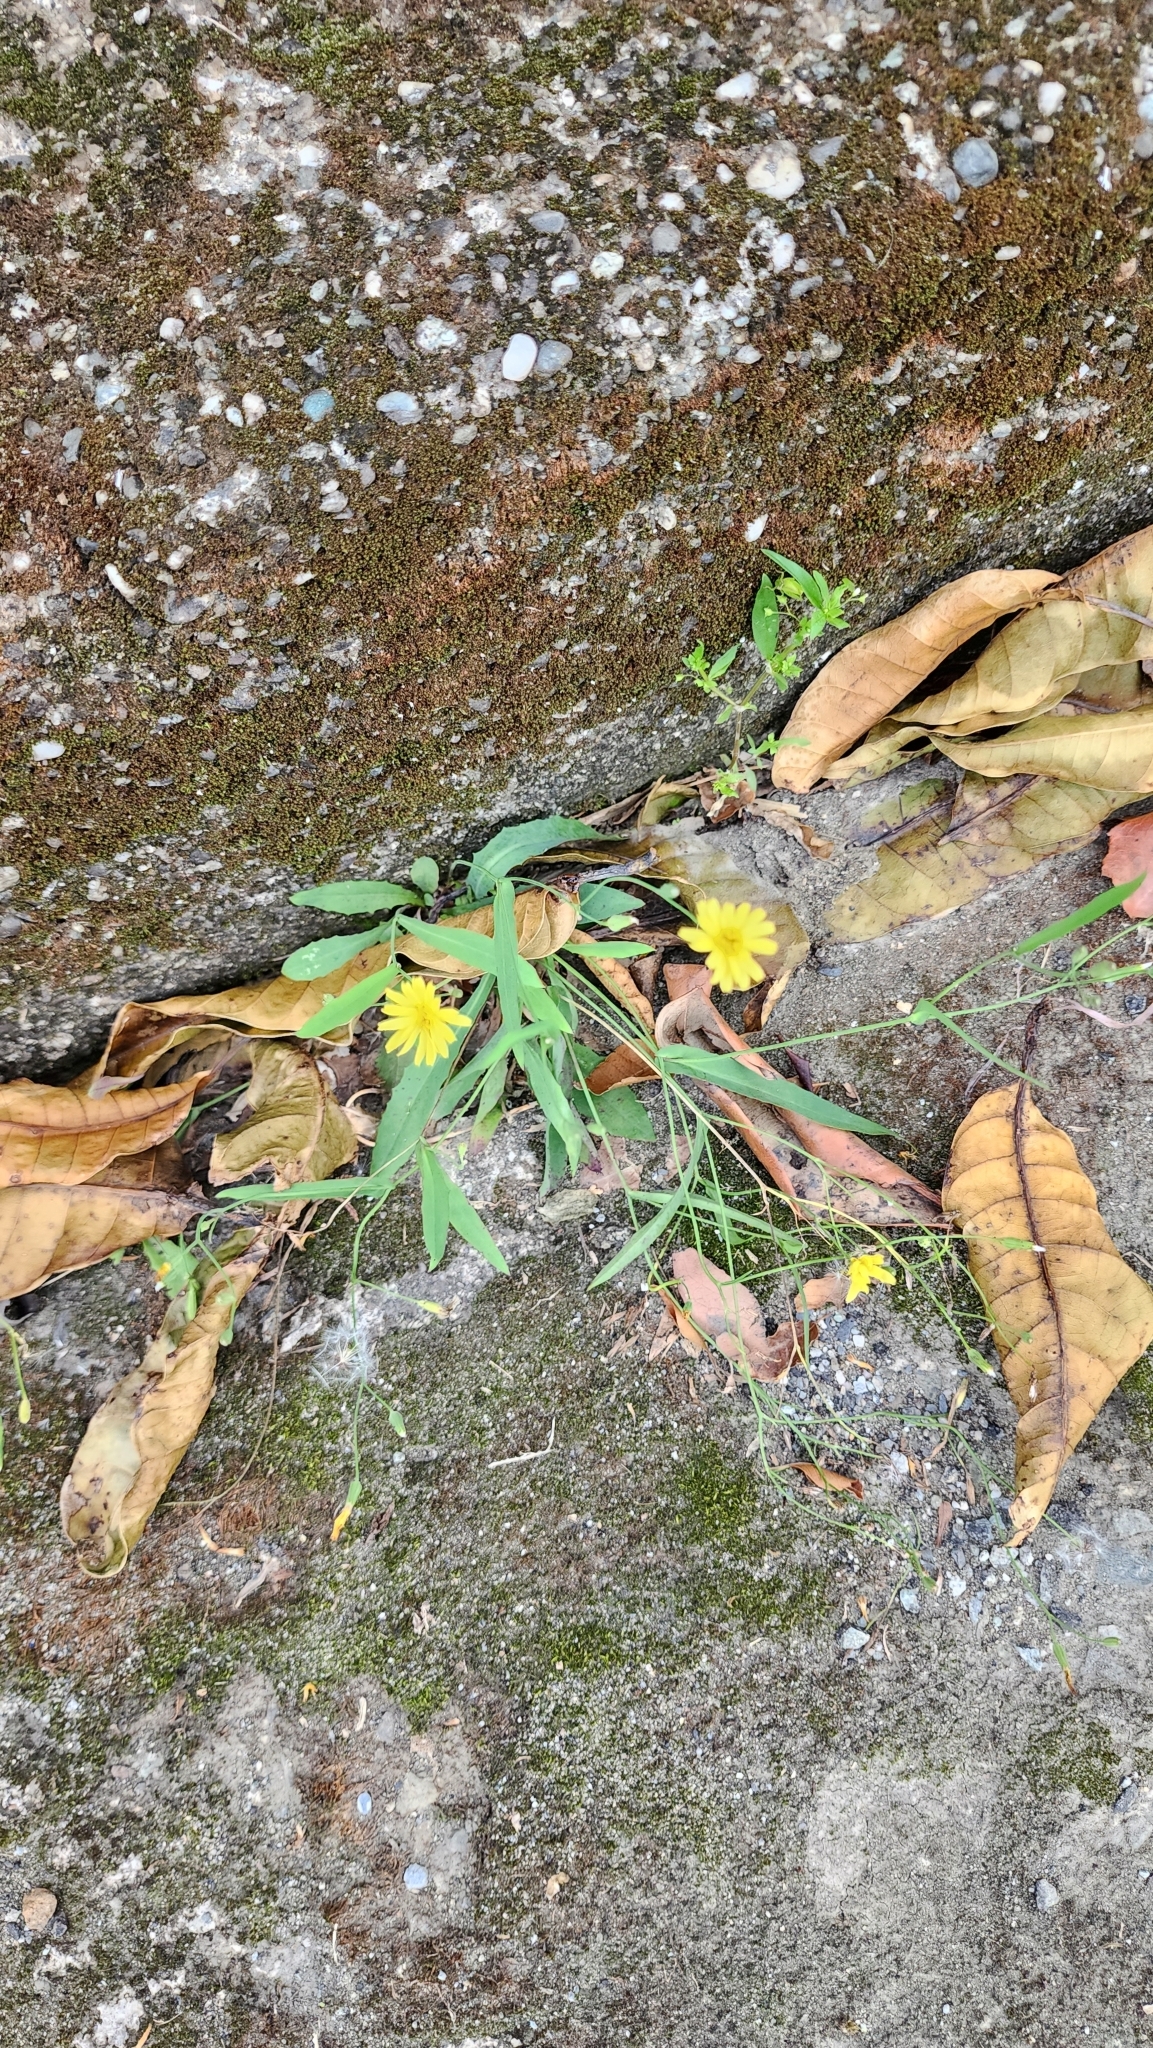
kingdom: Plantae
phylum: Tracheophyta
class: Magnoliopsida
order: Asterales
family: Asteraceae
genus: Ixeris
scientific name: Ixeris chinensis
